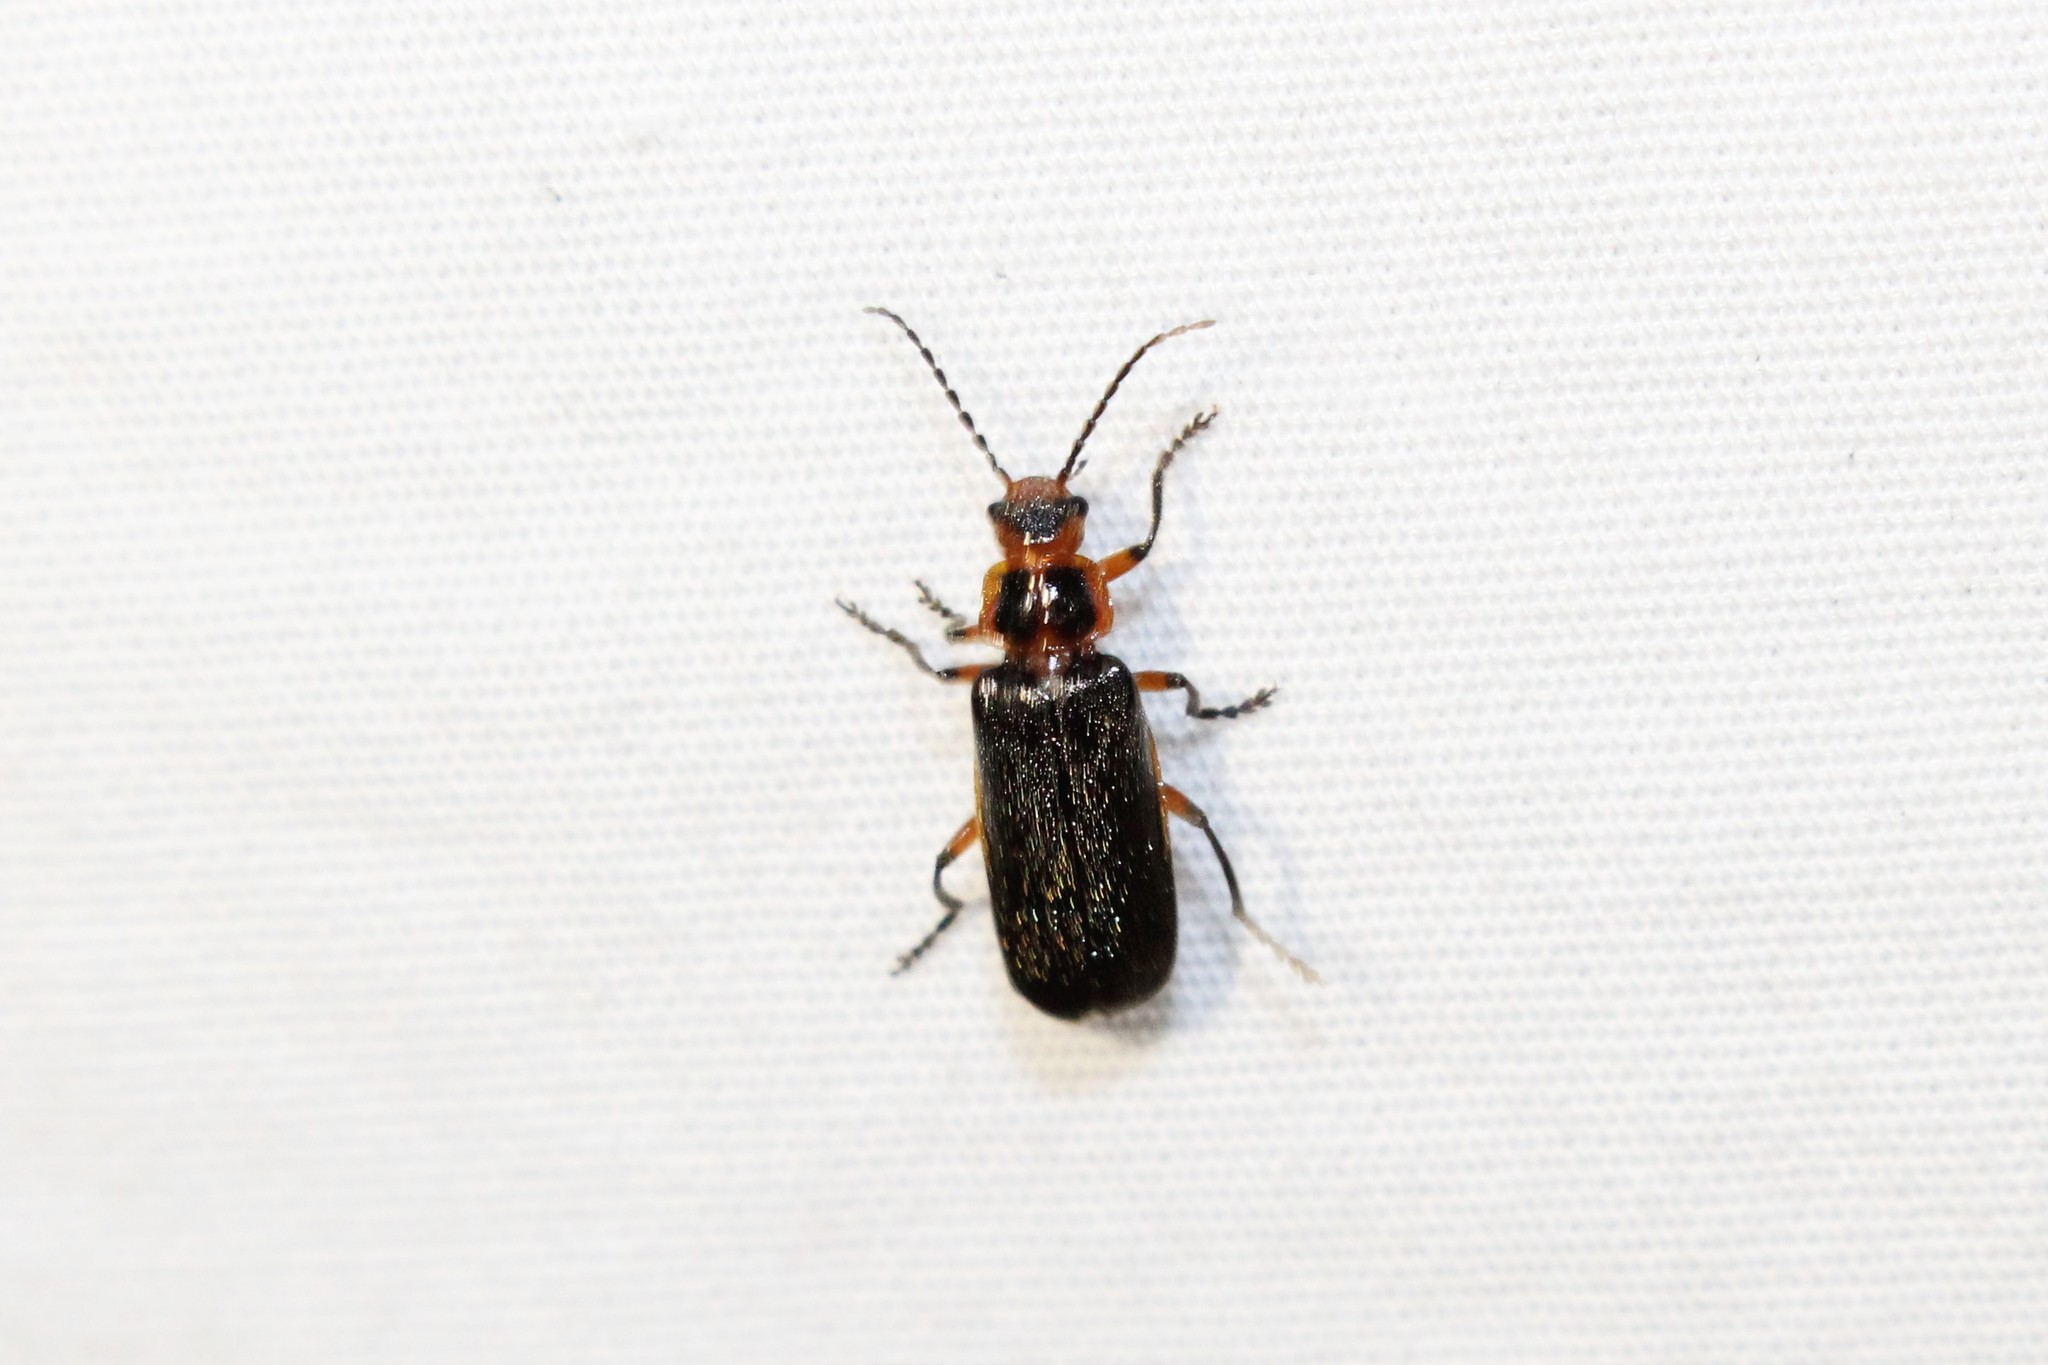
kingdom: Animalia
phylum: Arthropoda
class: Insecta
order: Coleoptera
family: Cantharidae
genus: Atalantycha
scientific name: Atalantycha bilineata
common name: Two-lined leatherwing
